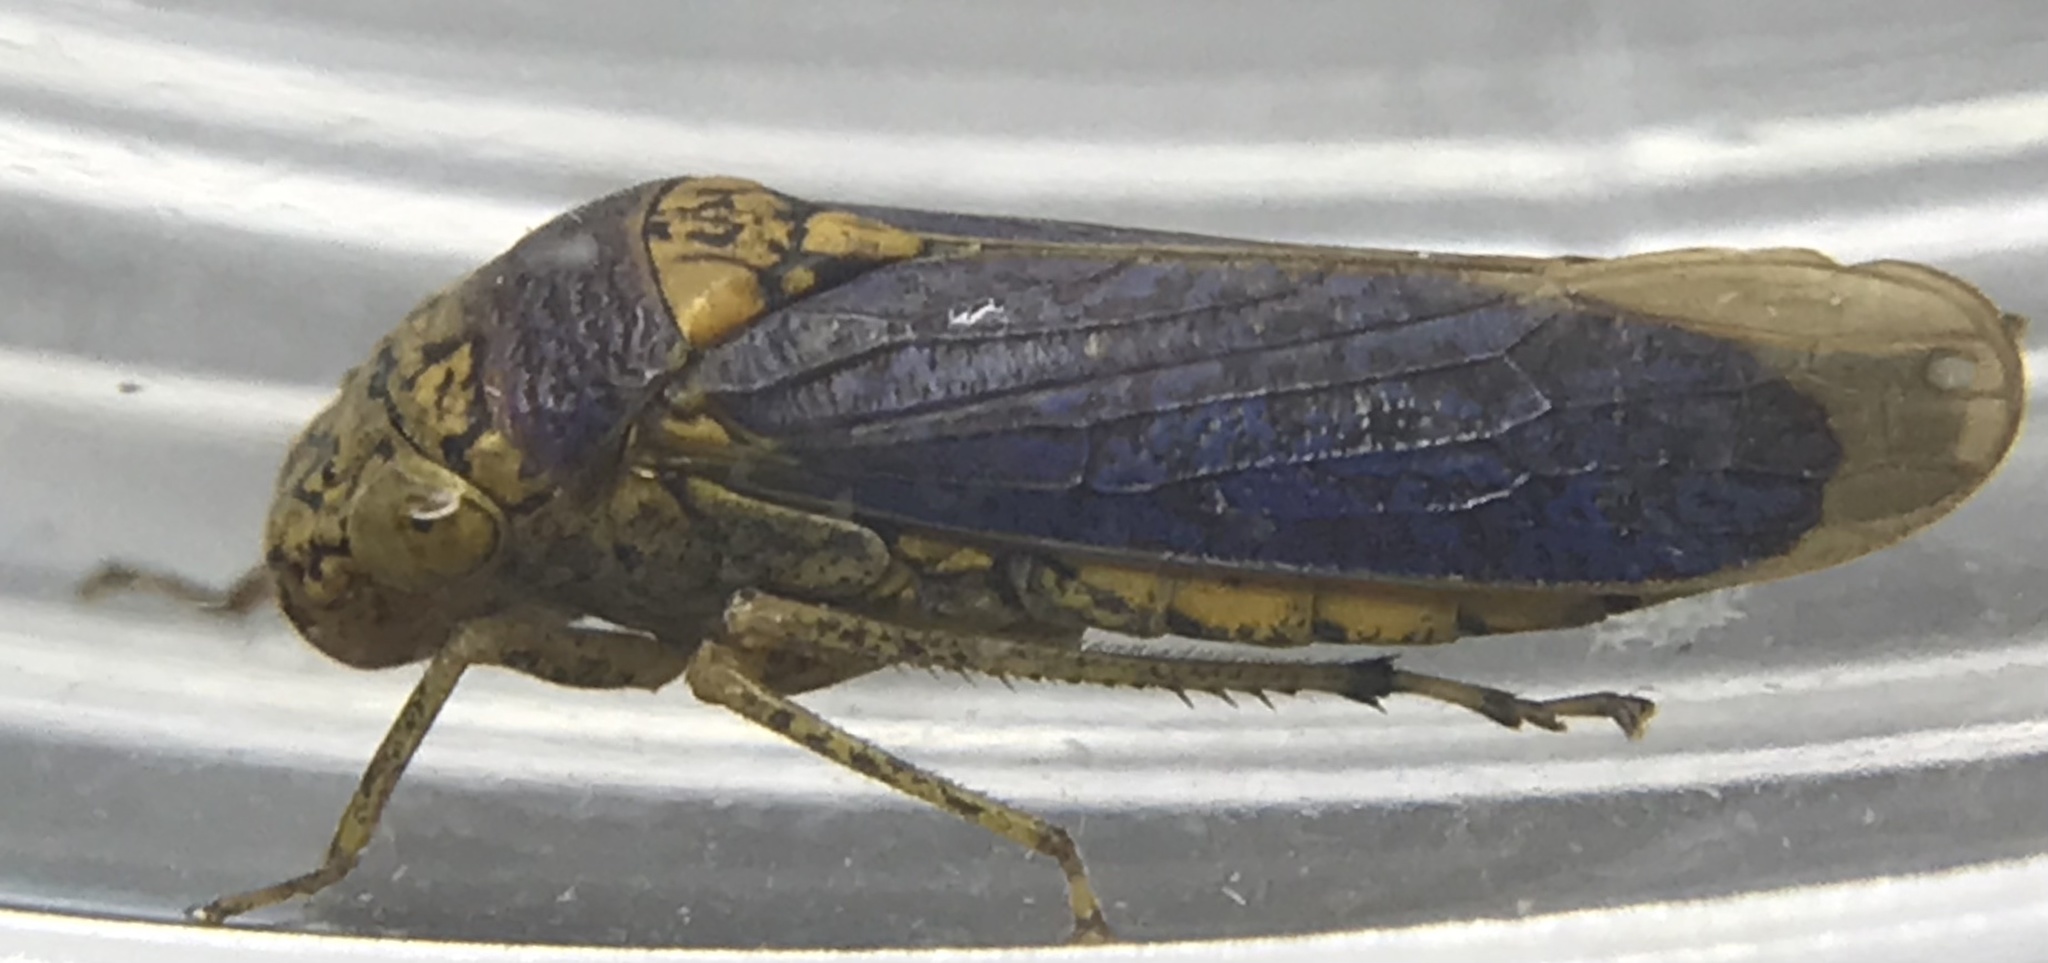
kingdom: Animalia
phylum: Arthropoda
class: Insecta
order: Hemiptera
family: Cicadellidae
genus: Oncometopia
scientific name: Oncometopia orbona
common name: Broad-headed sharpshooter
